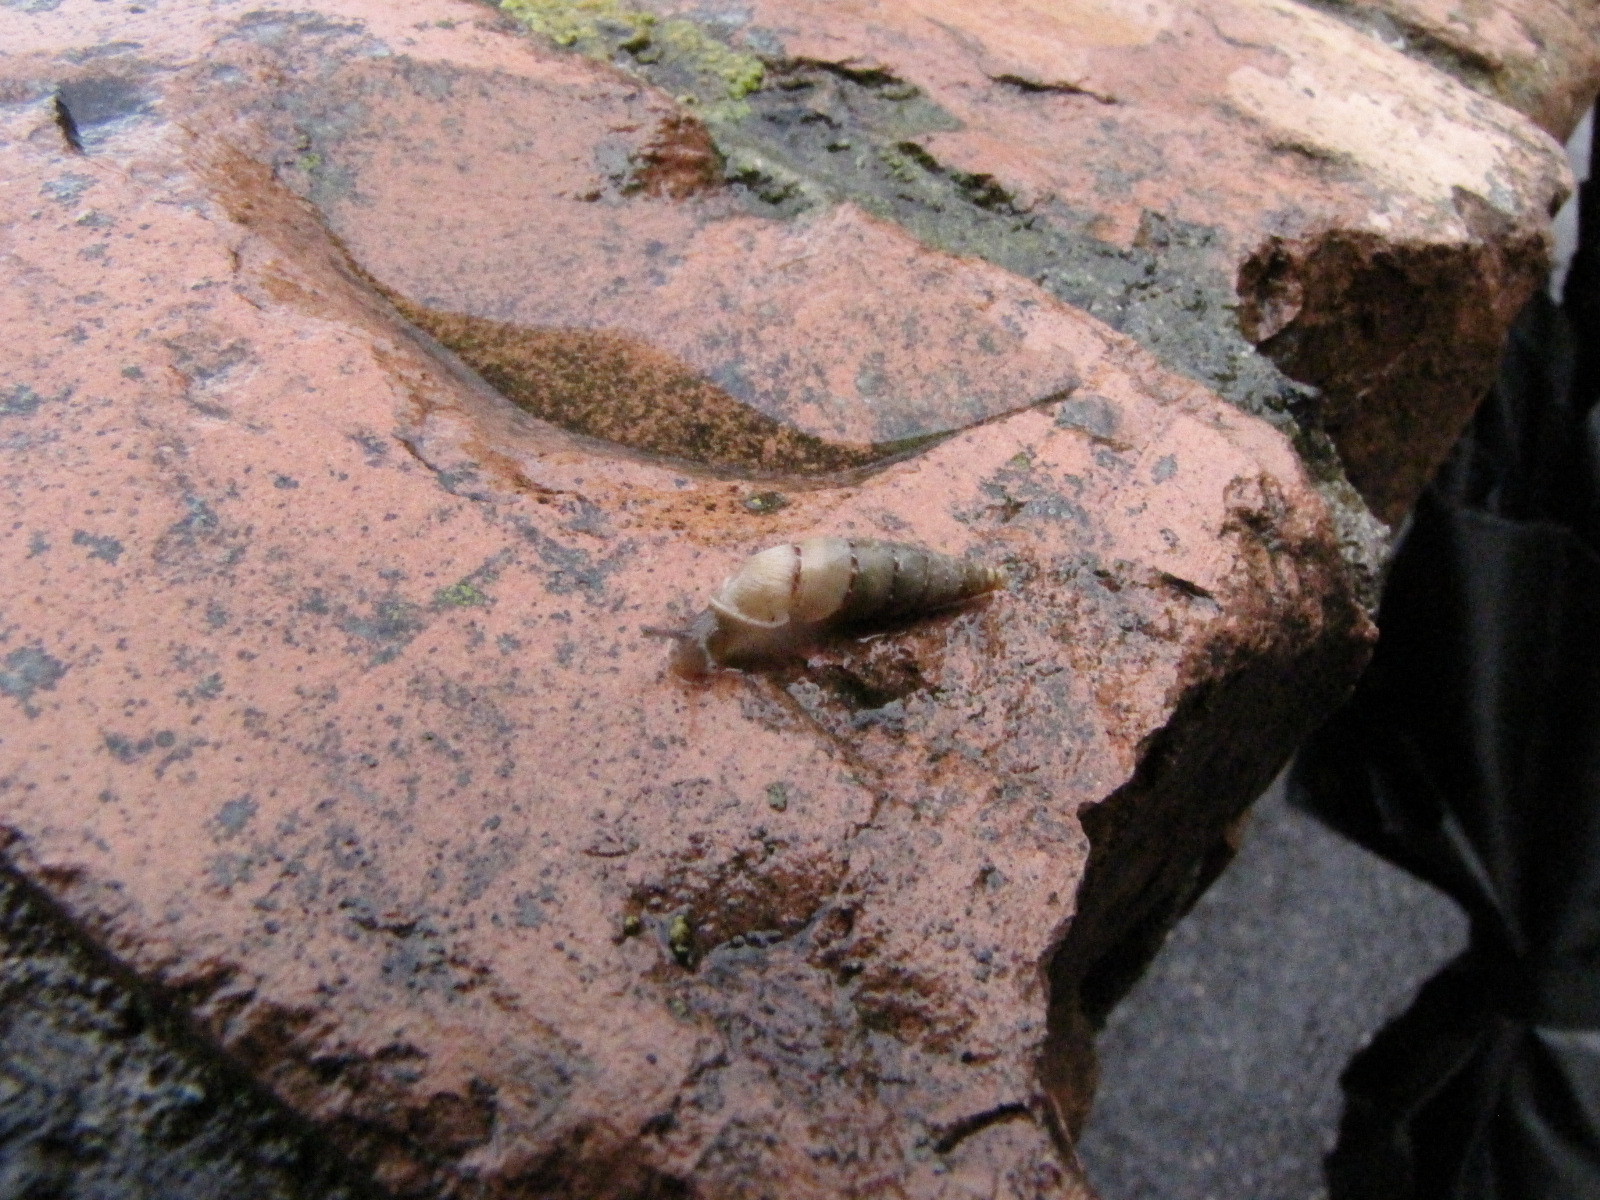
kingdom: Animalia
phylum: Mollusca
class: Gastropoda
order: Stylommatophora
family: Clausiliidae
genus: Papillifera
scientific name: Papillifera papillaris
